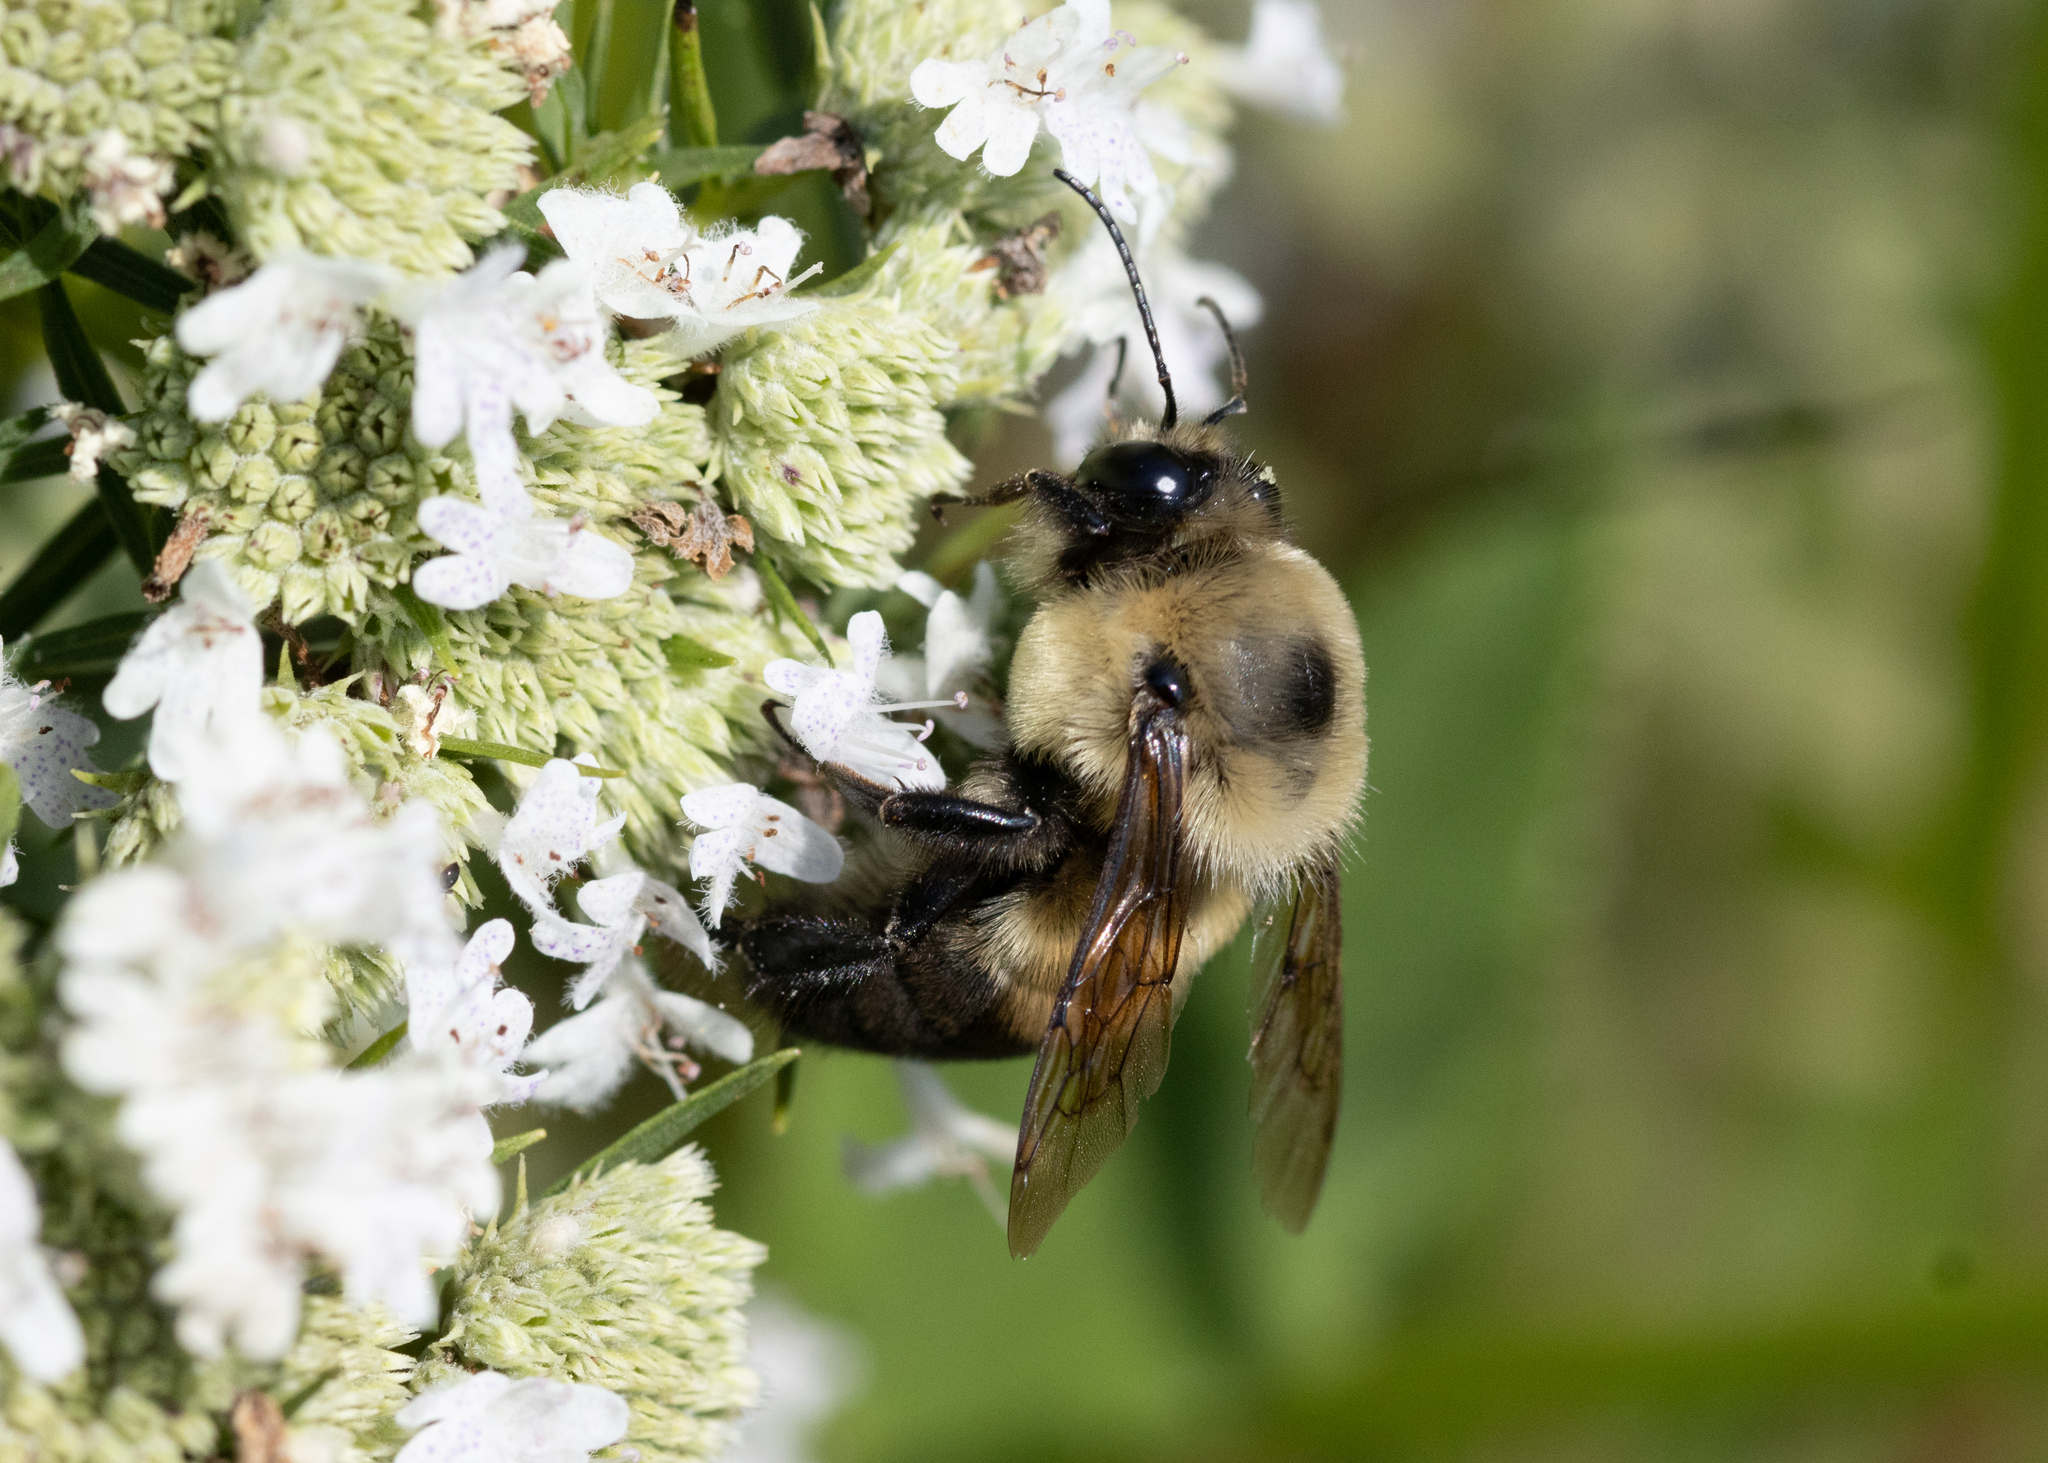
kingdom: Animalia
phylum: Arthropoda
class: Insecta
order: Hymenoptera
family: Apidae
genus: Bombus
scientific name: Bombus griseocollis
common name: Brown-belted bumble bee
